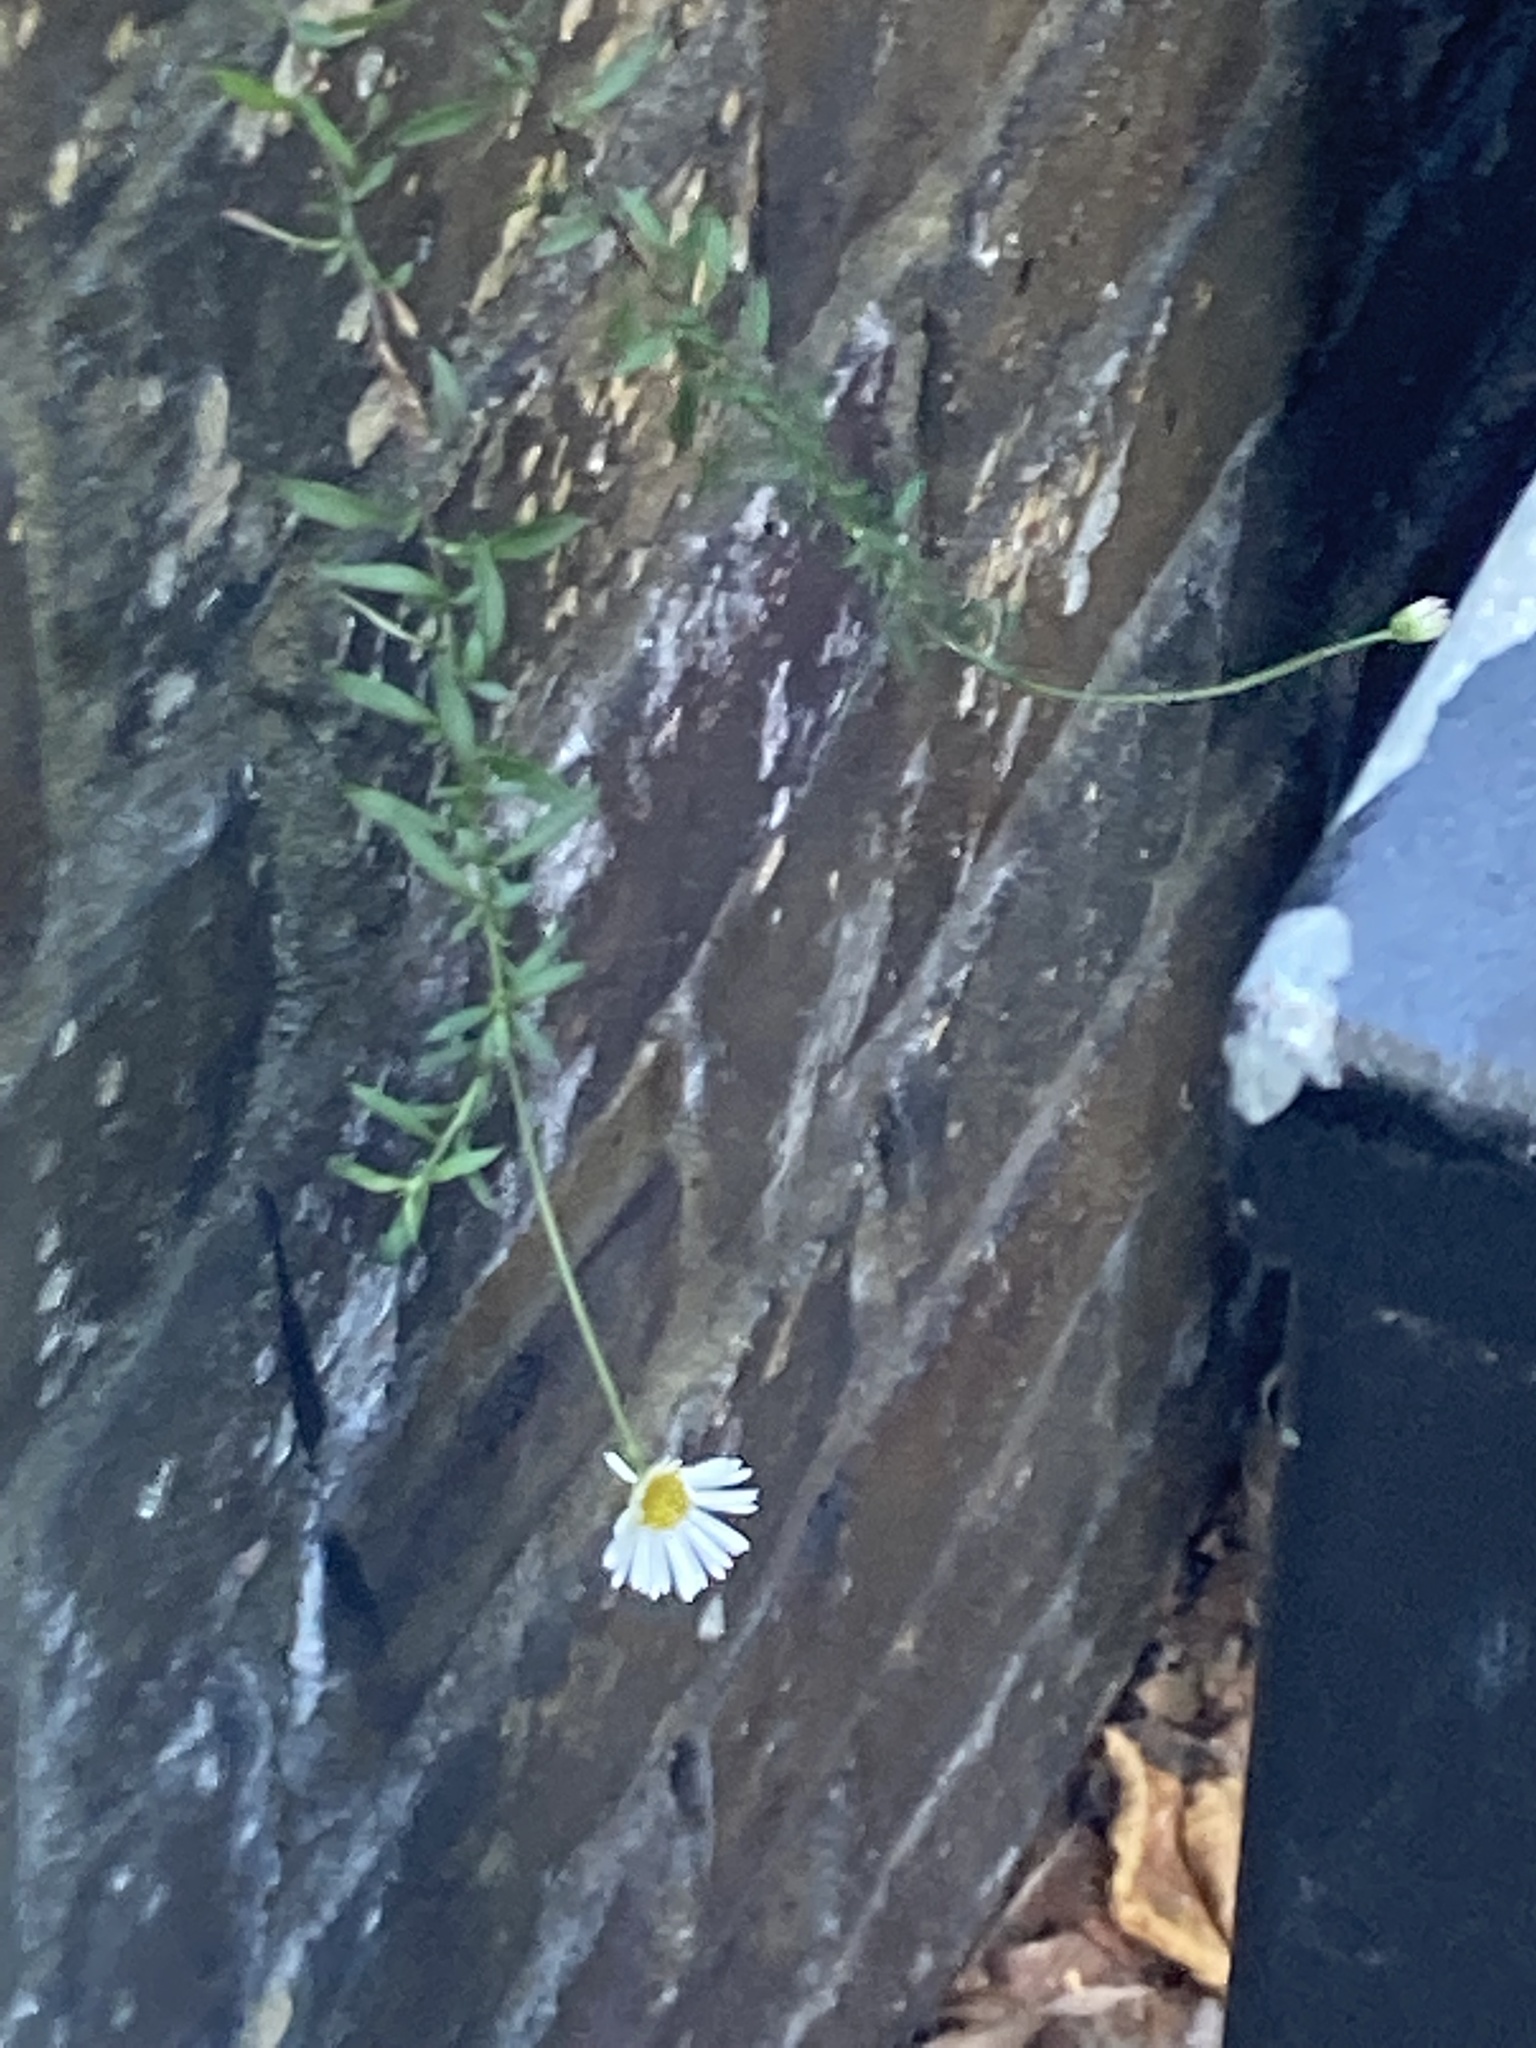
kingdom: Plantae
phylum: Tracheophyta
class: Magnoliopsida
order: Asterales
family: Asteraceae
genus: Erigeron
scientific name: Erigeron karvinskianus
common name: Mexican fleabane
